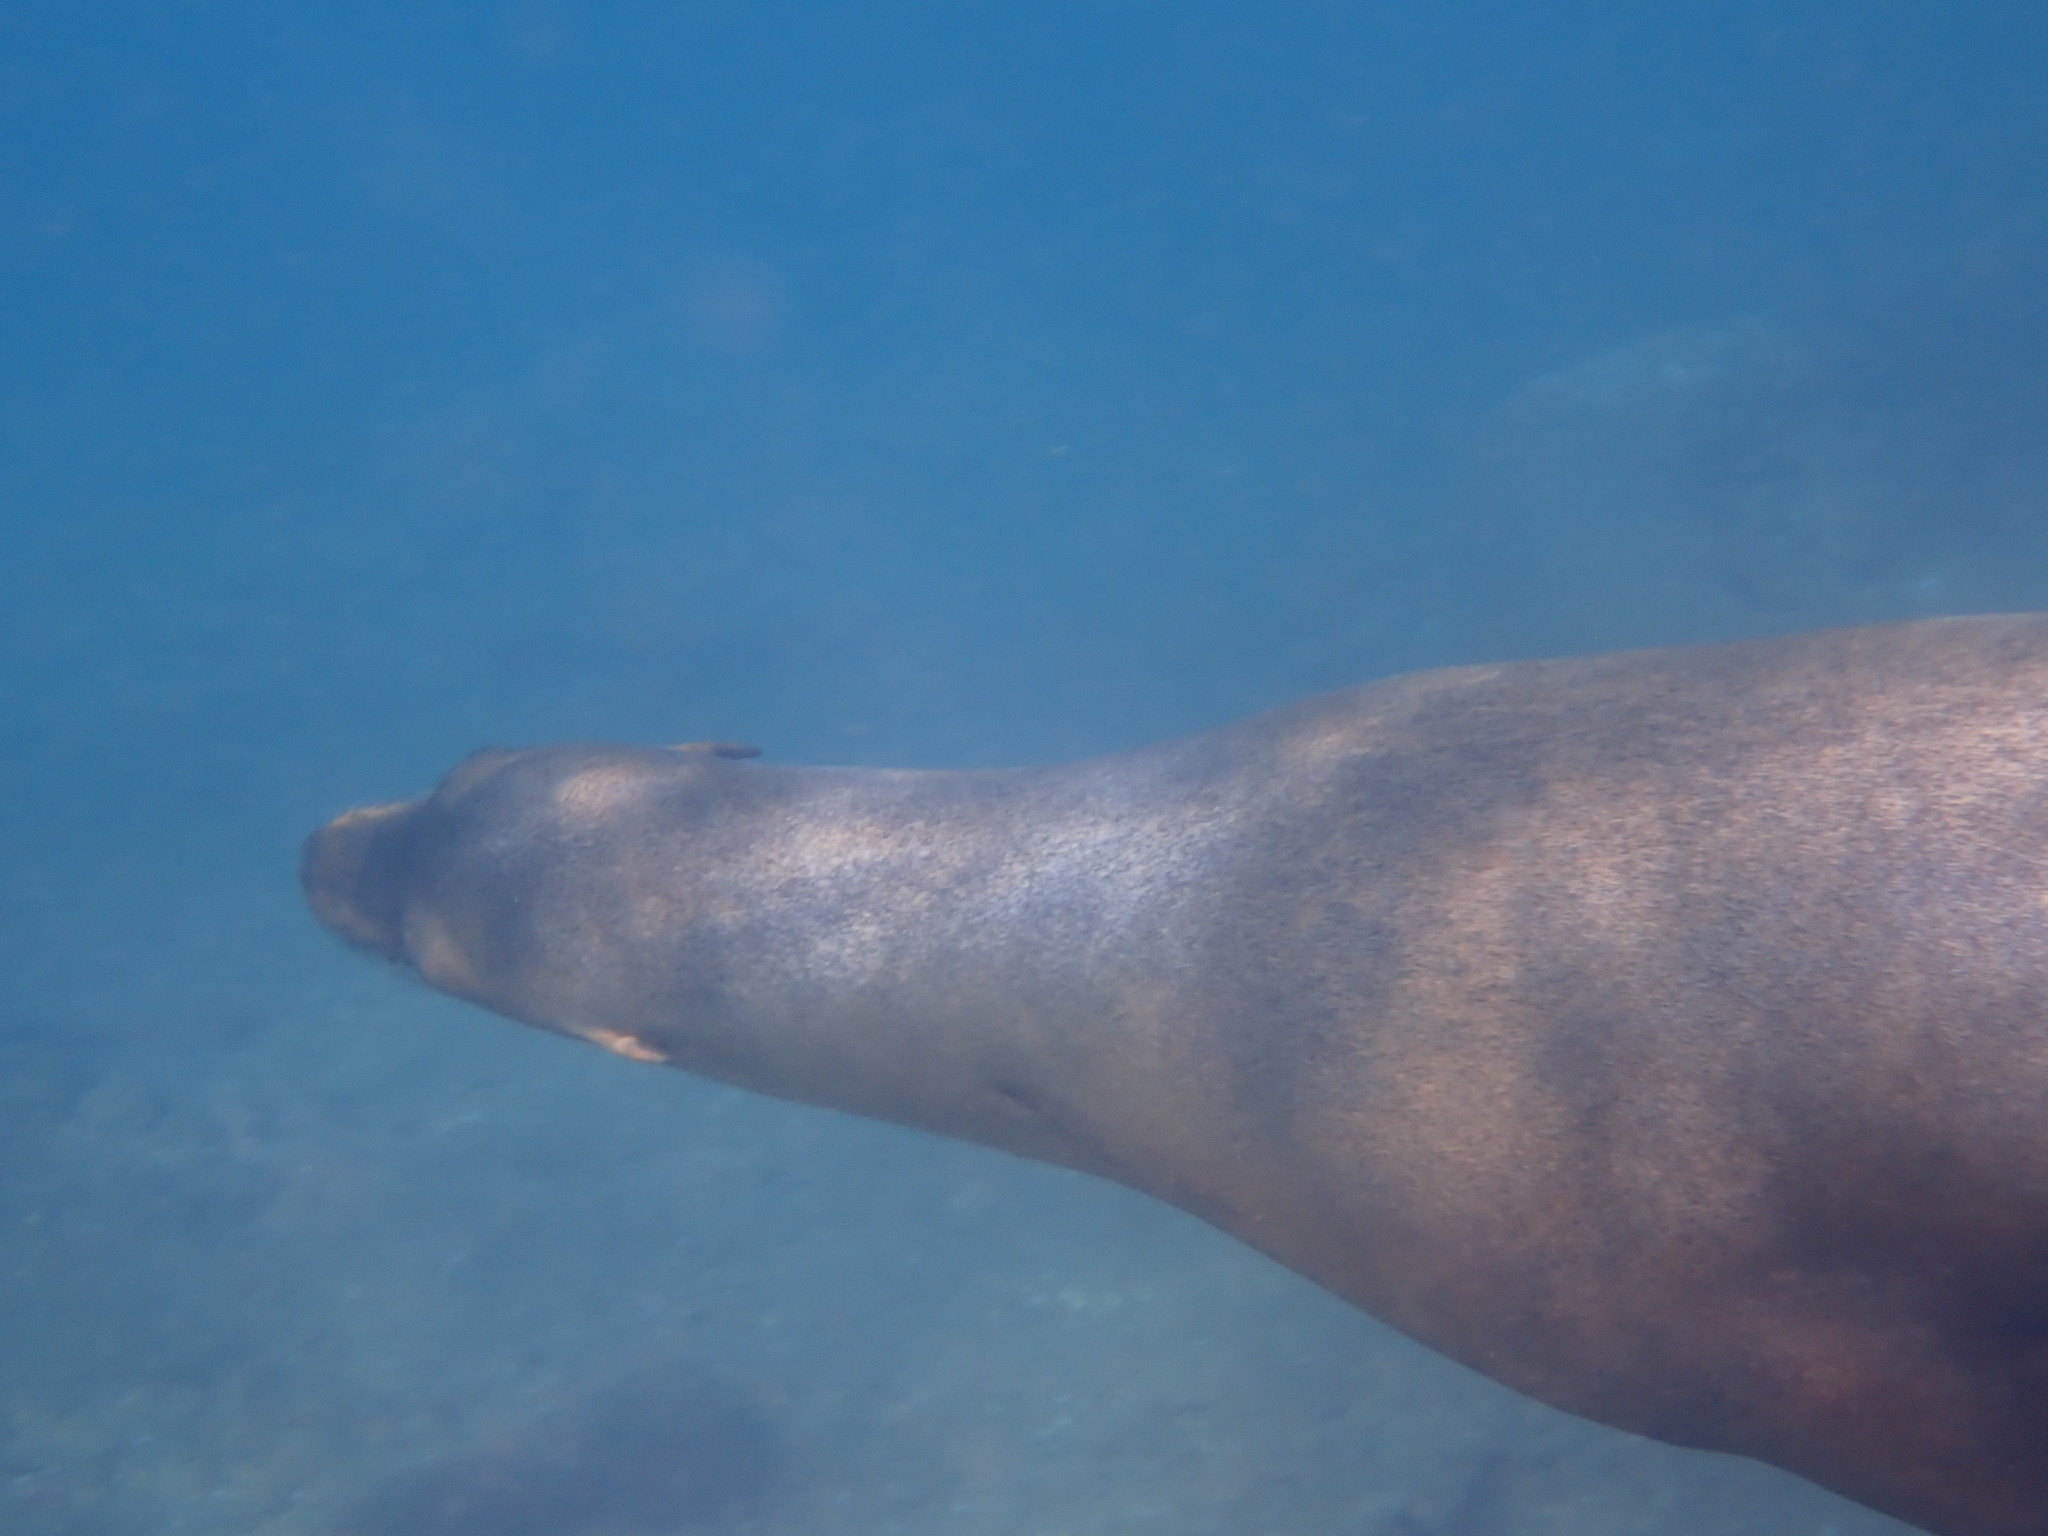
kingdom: Animalia
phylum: Chordata
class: Mammalia
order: Carnivora
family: Otariidae
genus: Zalophus
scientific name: Zalophus wollebaeki
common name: Galapagos sea lion
